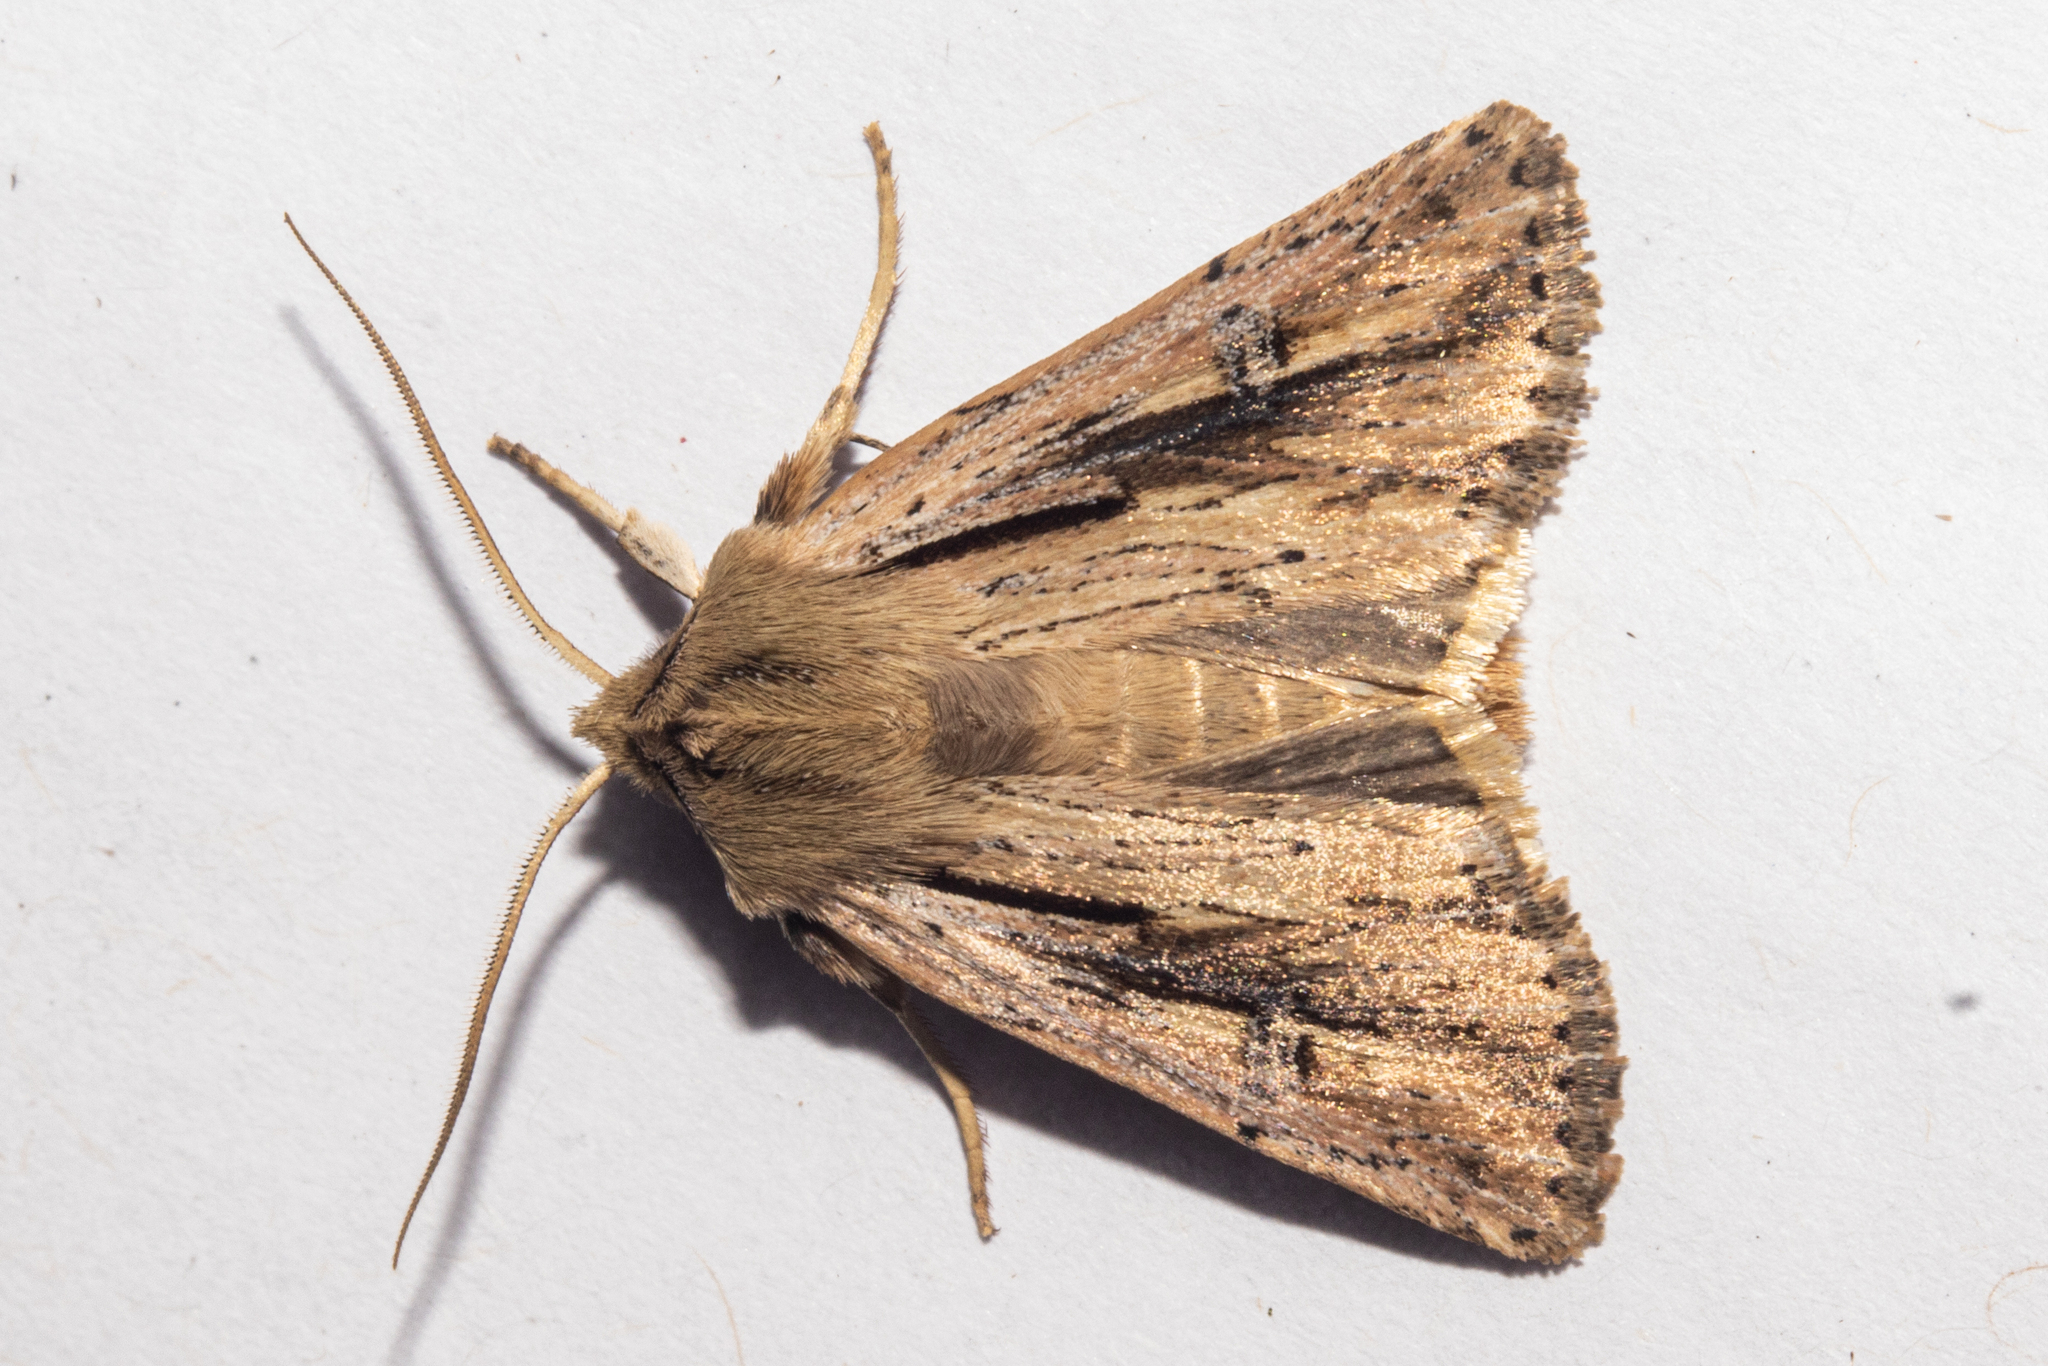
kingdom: Animalia
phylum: Arthropoda
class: Insecta
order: Lepidoptera
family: Noctuidae
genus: Ichneutica
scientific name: Ichneutica propria
